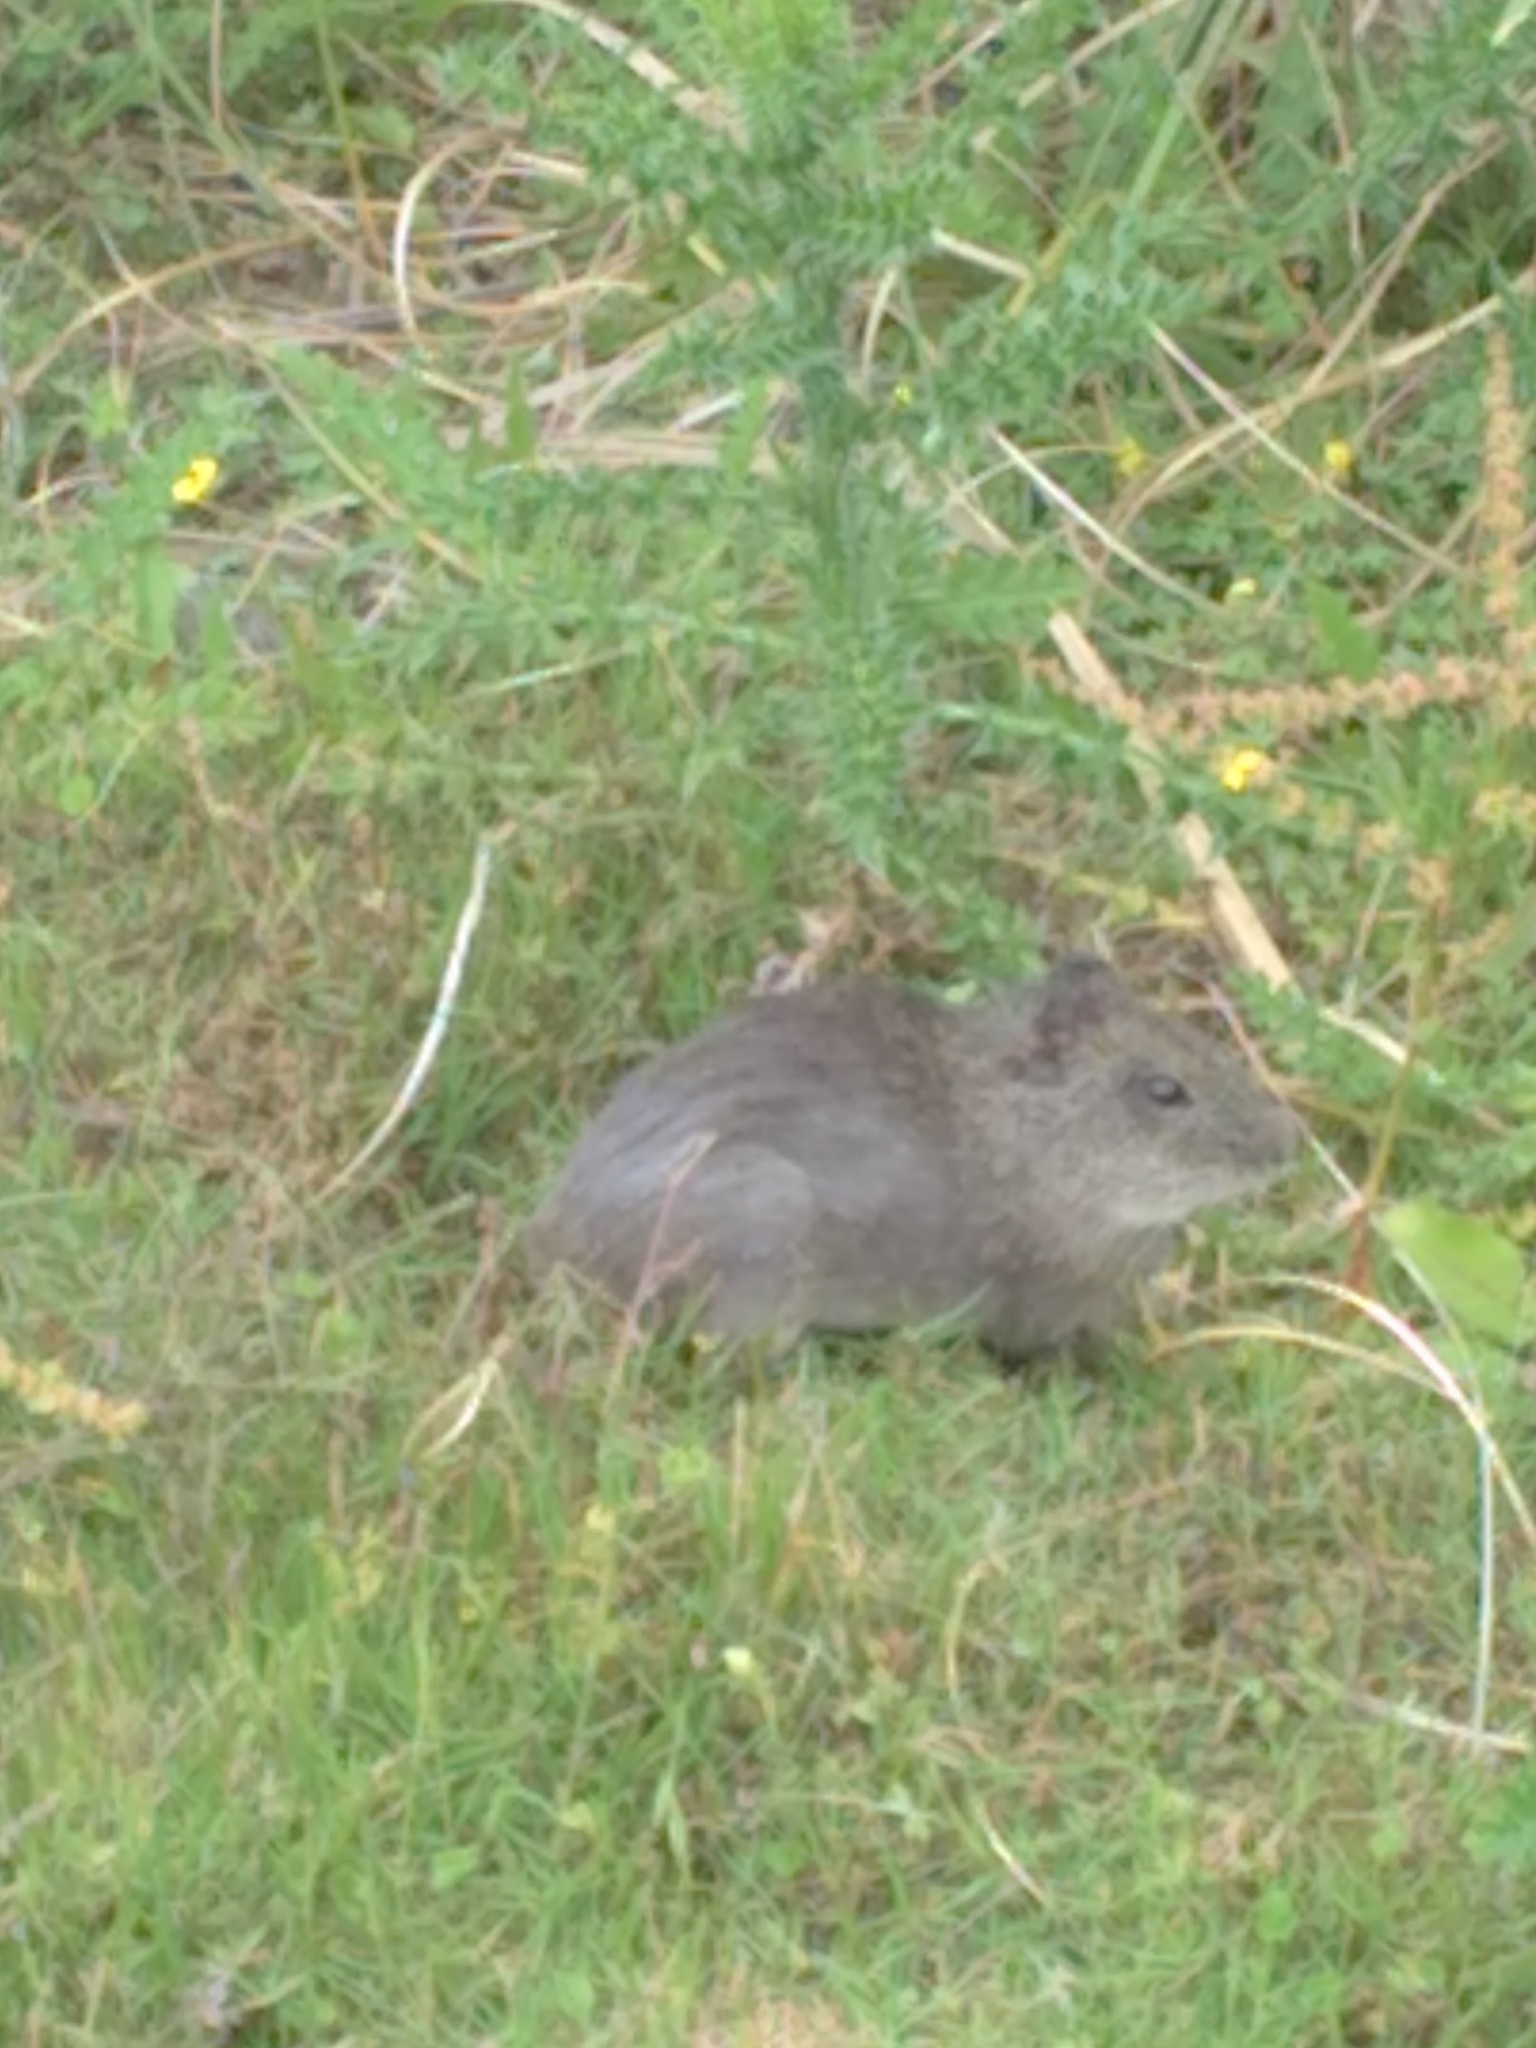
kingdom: Animalia
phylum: Chordata
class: Mammalia
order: Rodentia
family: Caviidae
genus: Cavia
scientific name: Cavia aperea
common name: Brazilian guinea pig
